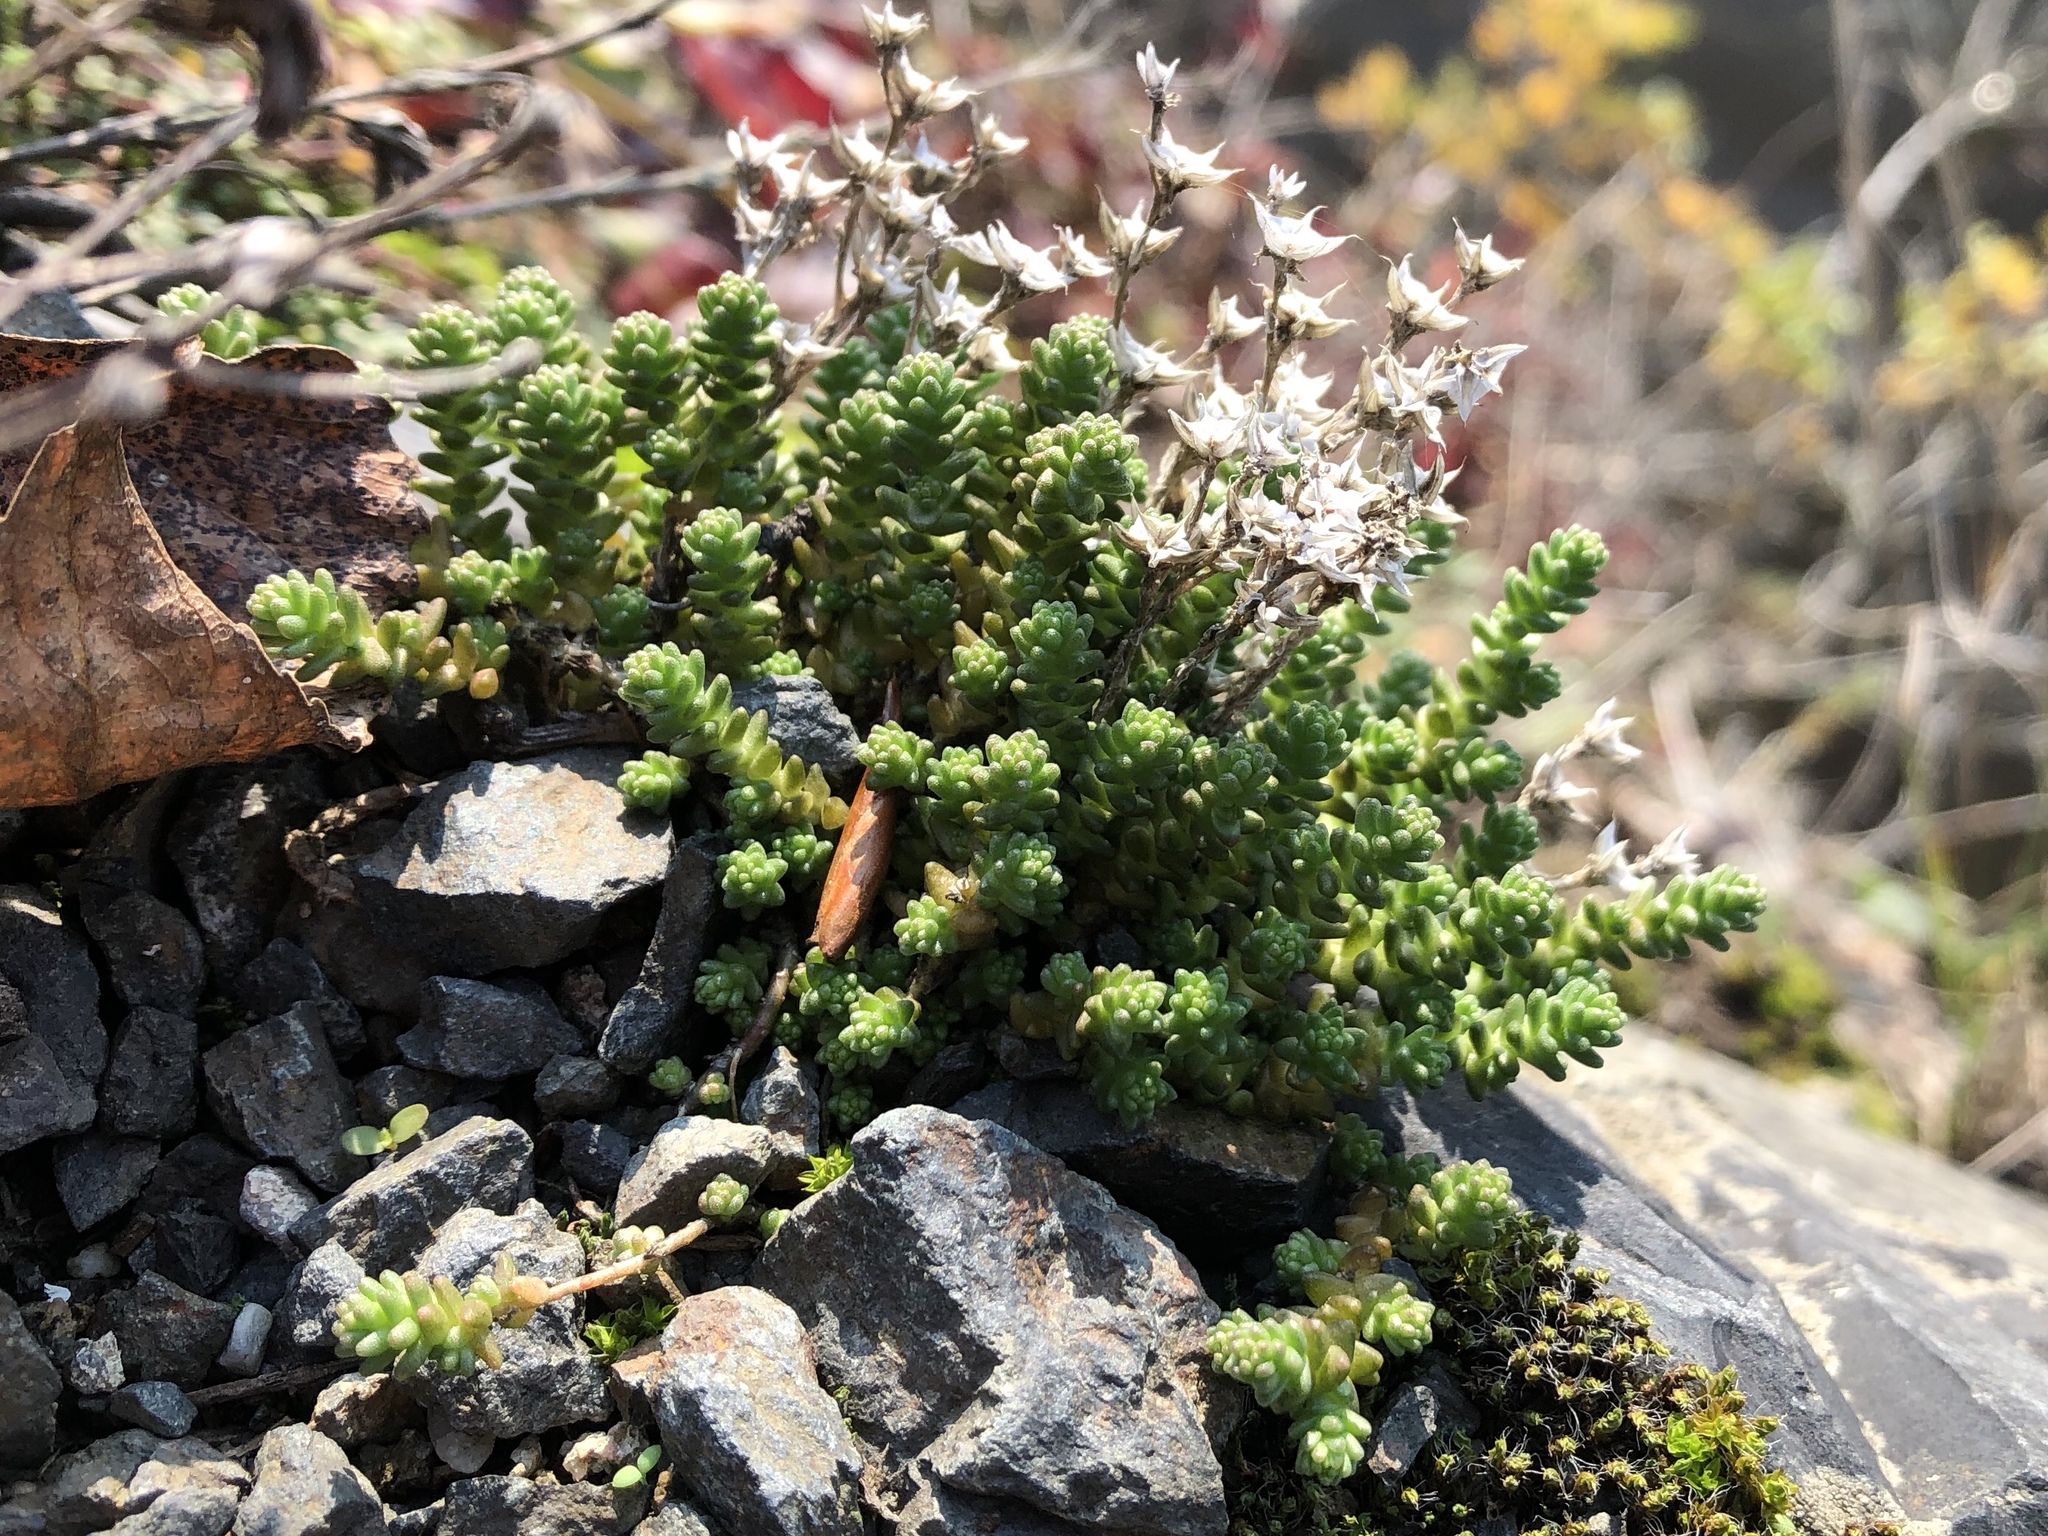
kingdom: Plantae
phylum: Tracheophyta
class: Magnoliopsida
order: Saxifragales
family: Crassulaceae
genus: Sedum
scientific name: Sedum acre
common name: Biting stonecrop
